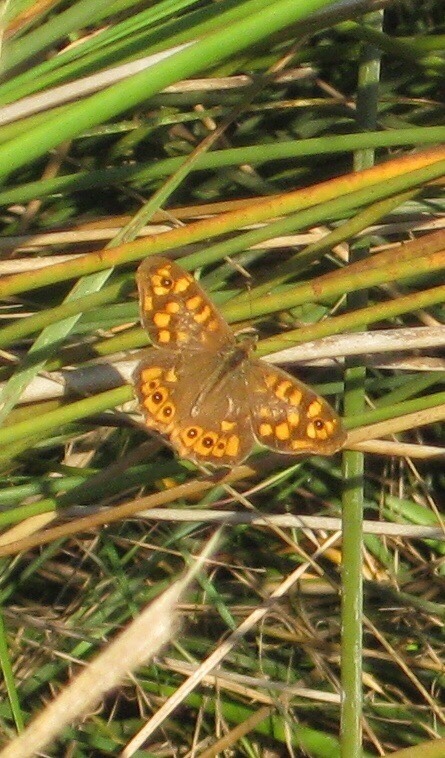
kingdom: Animalia
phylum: Arthropoda
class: Insecta
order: Lepidoptera
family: Nymphalidae
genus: Pararge
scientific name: Pararge aegeria
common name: Speckled wood
